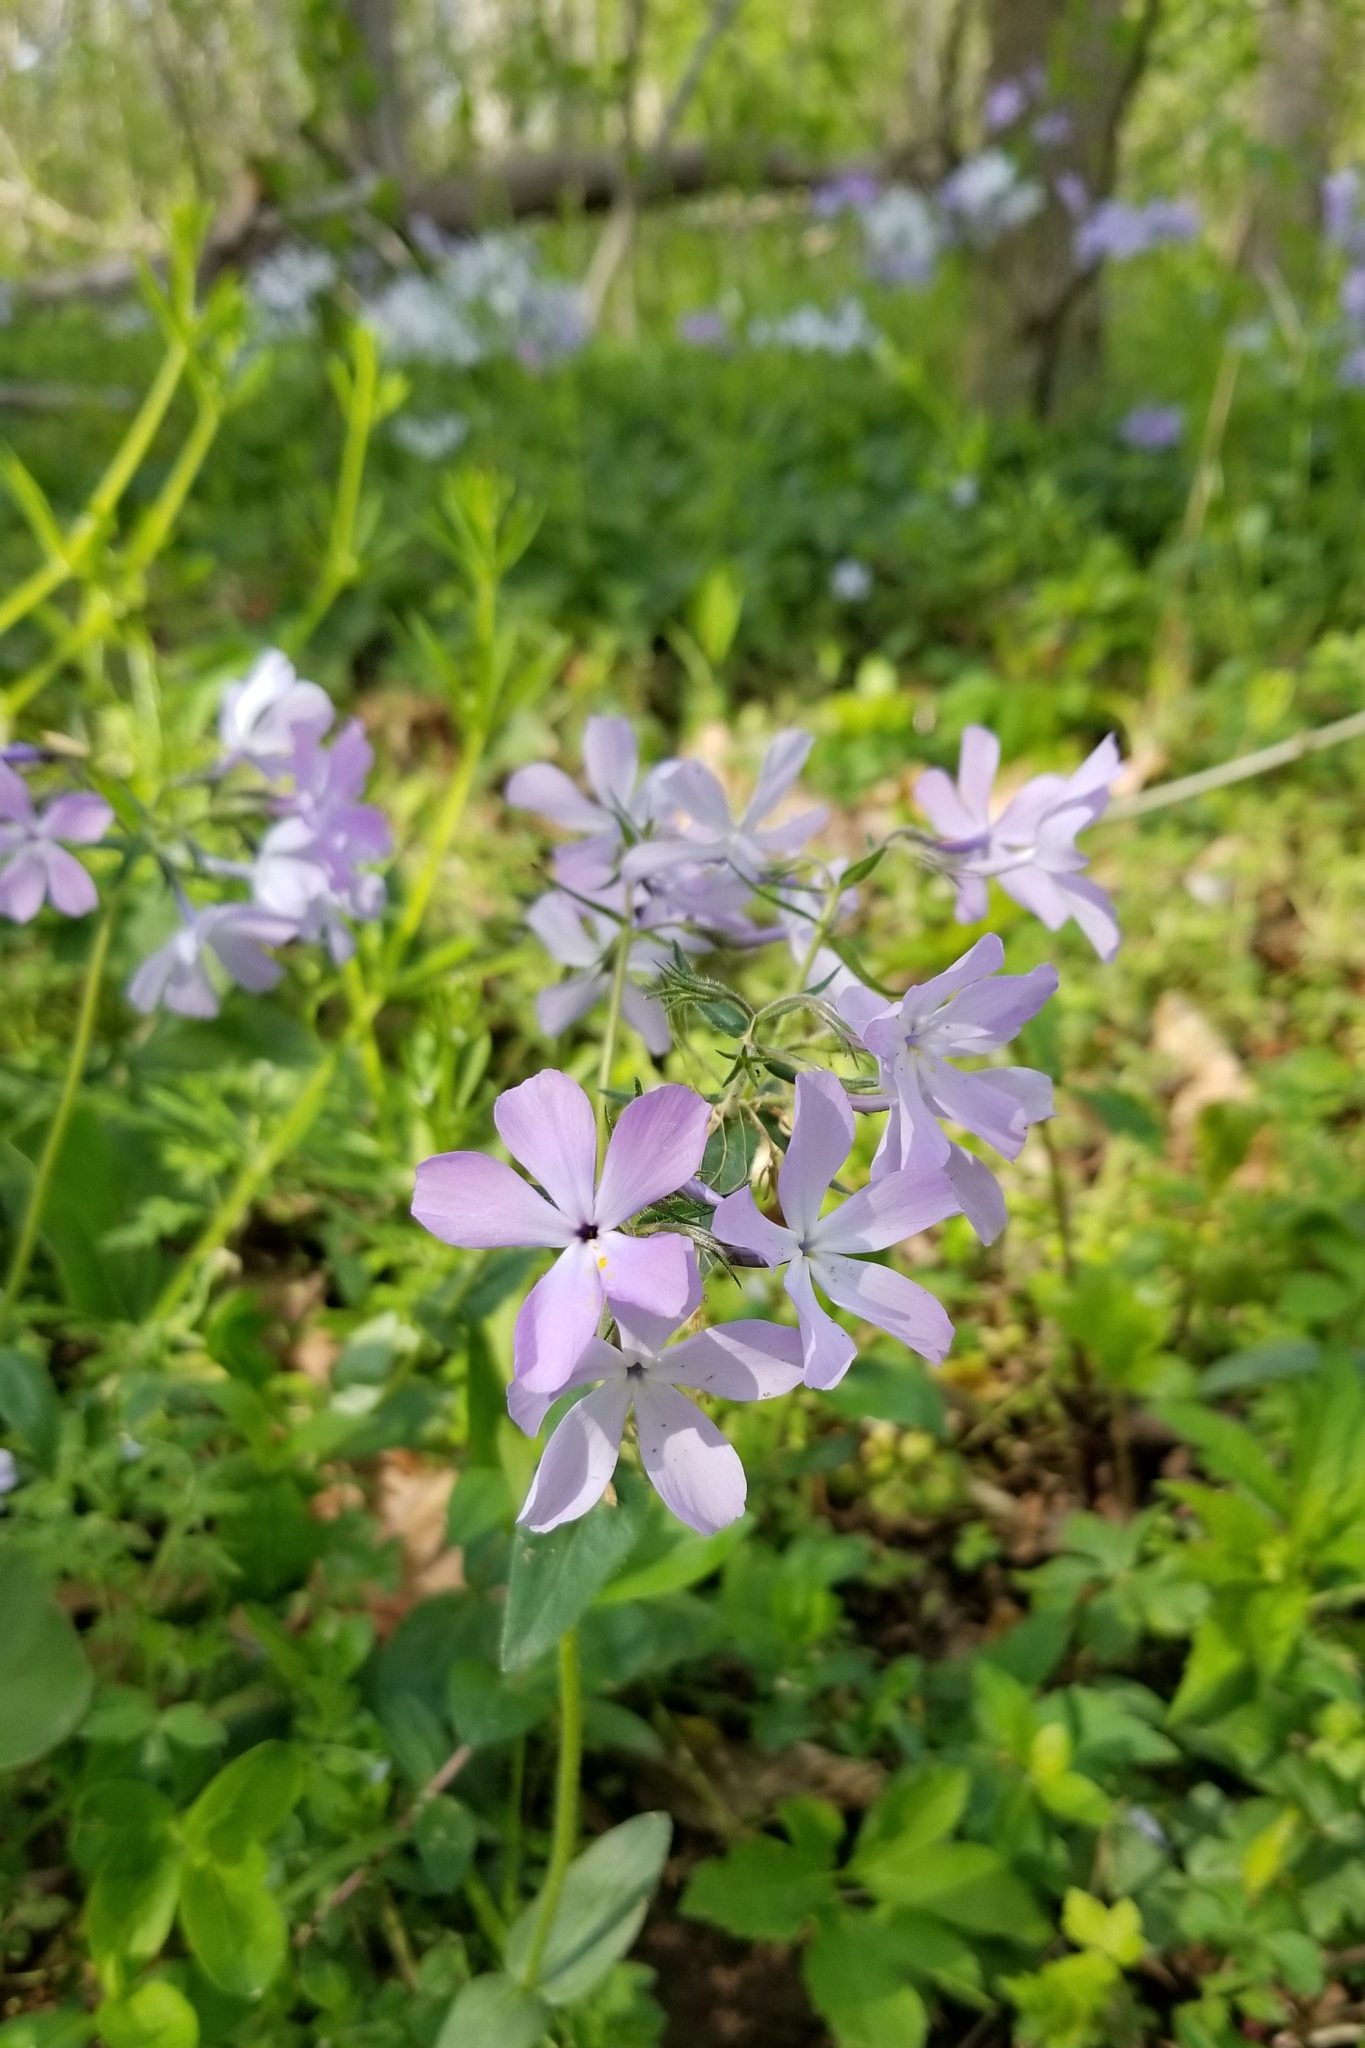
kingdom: Plantae
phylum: Tracheophyta
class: Magnoliopsida
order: Ericales
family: Polemoniaceae
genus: Phlox
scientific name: Phlox divaricata
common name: Blue phlox
